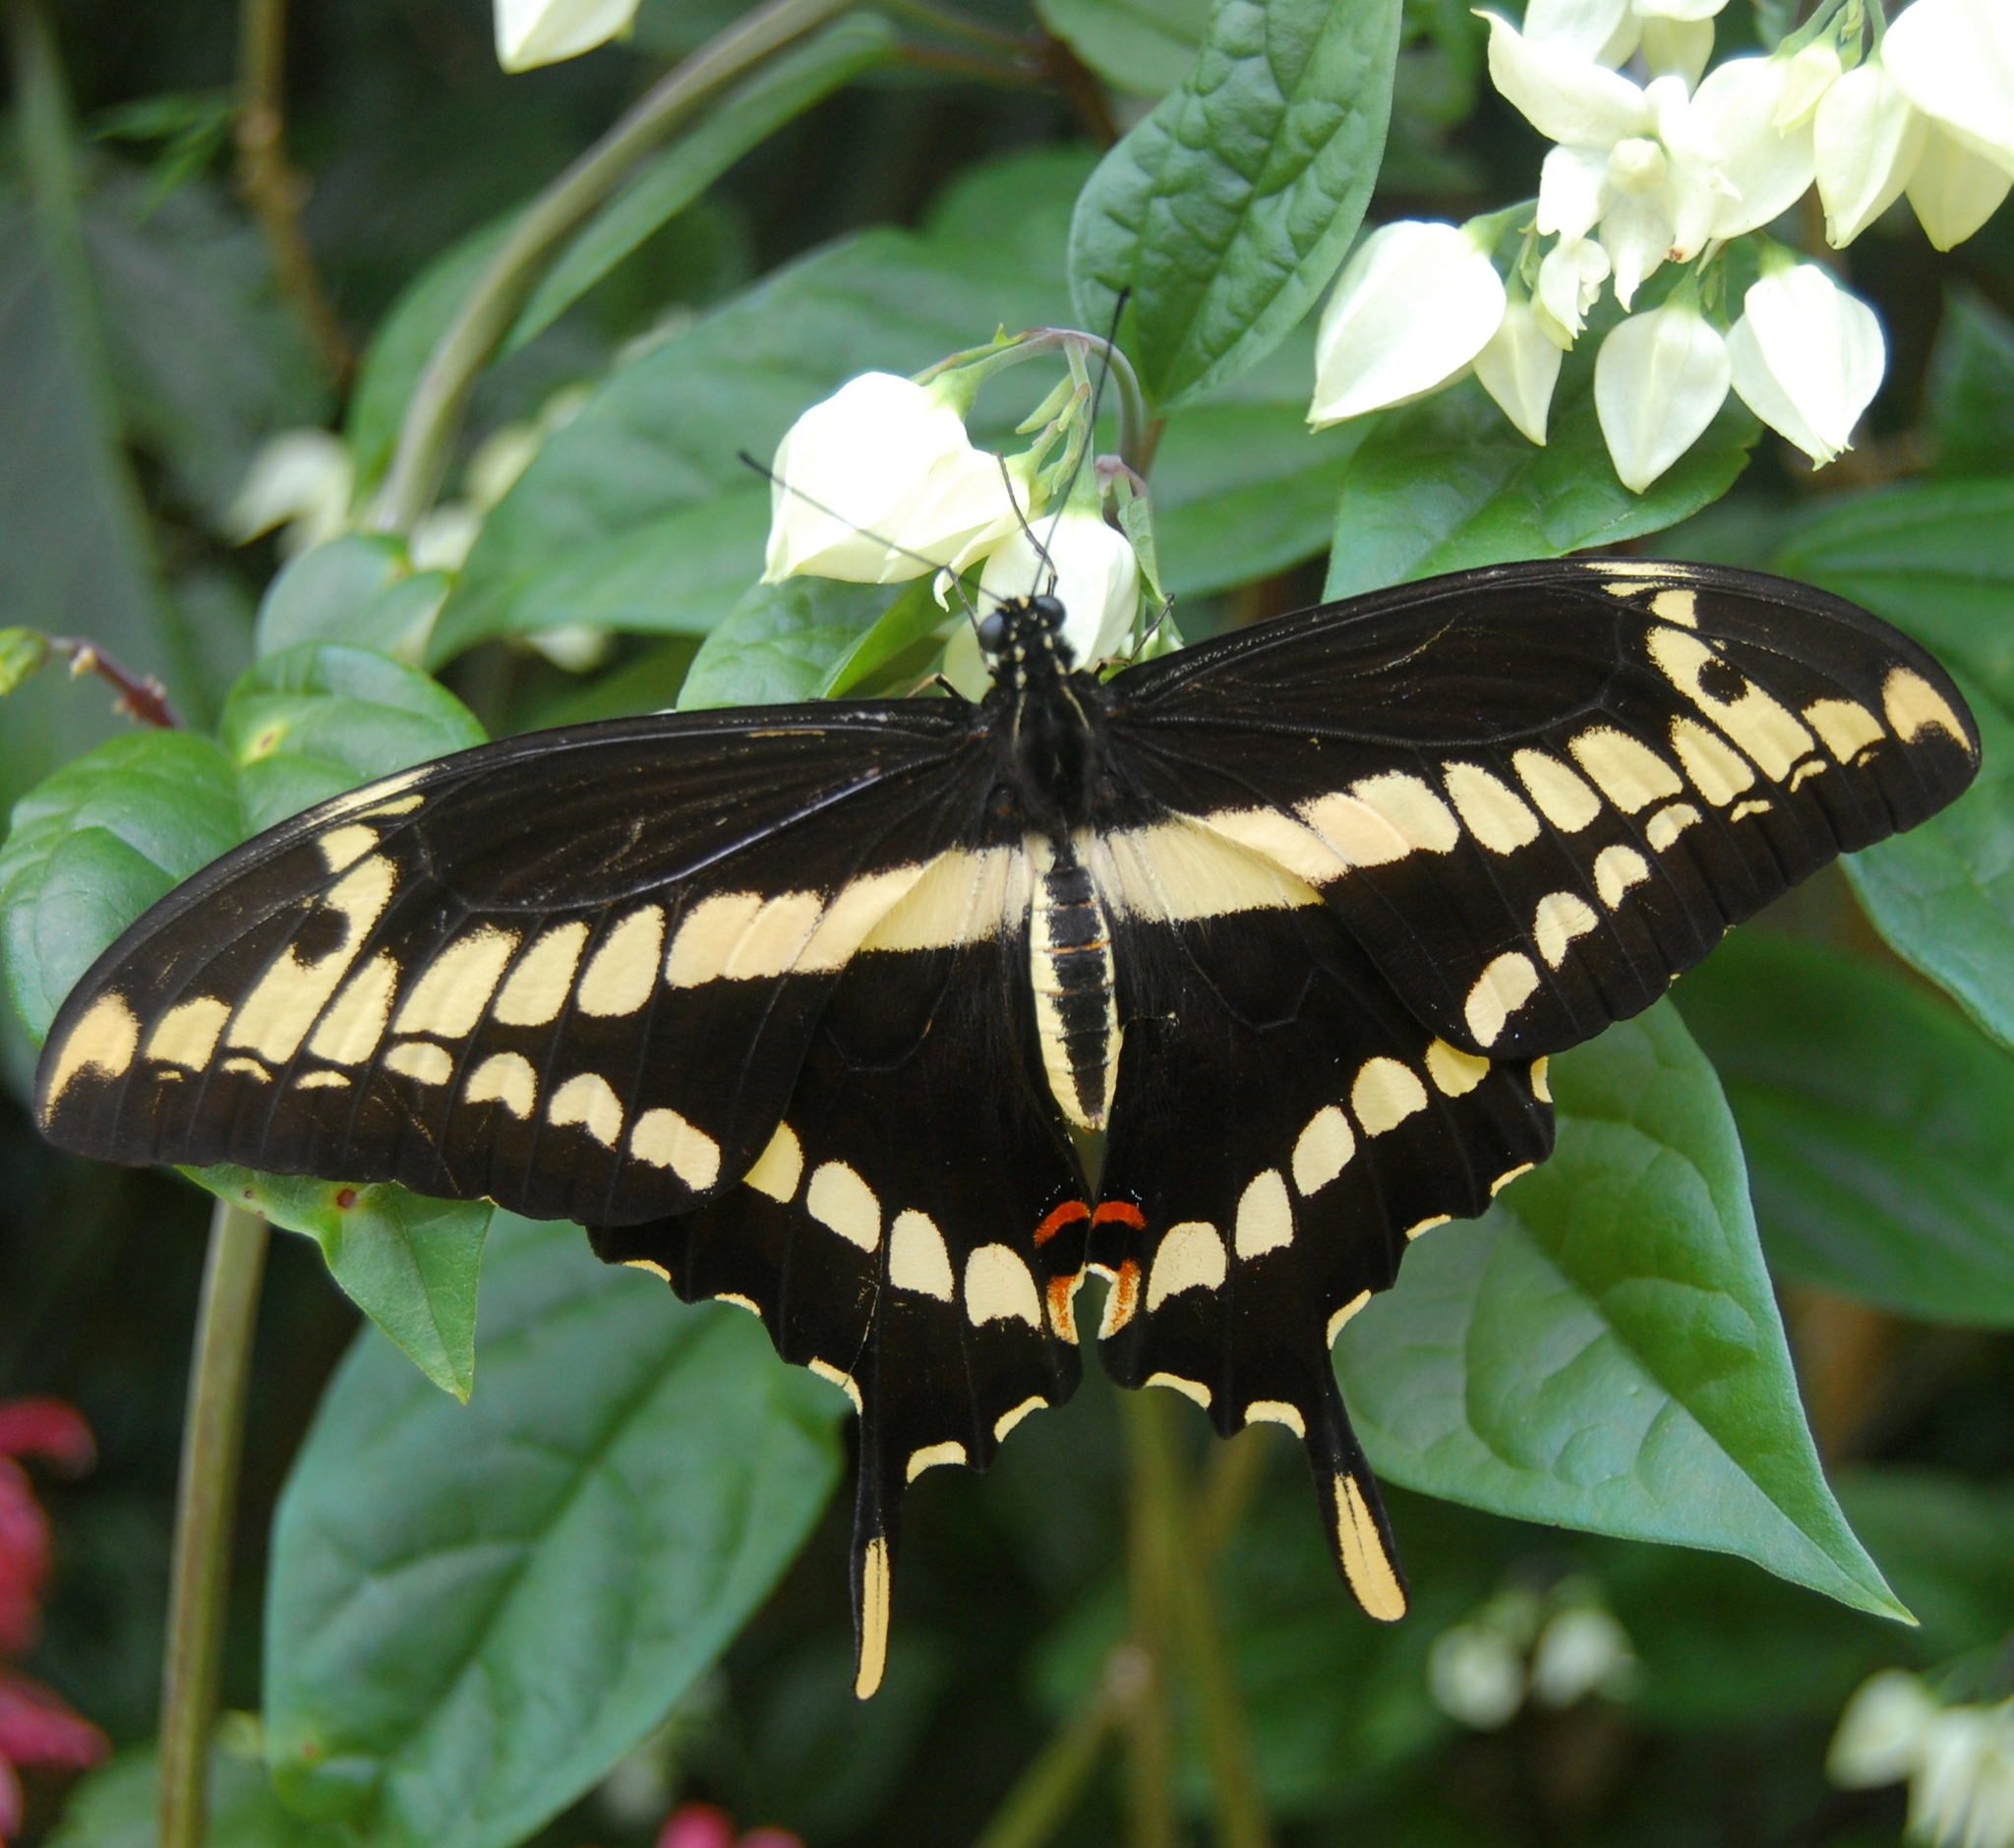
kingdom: Animalia
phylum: Arthropoda
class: Insecta
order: Lepidoptera
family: Papilionidae
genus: Papilio
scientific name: Papilio thoas
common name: King swallowtail
